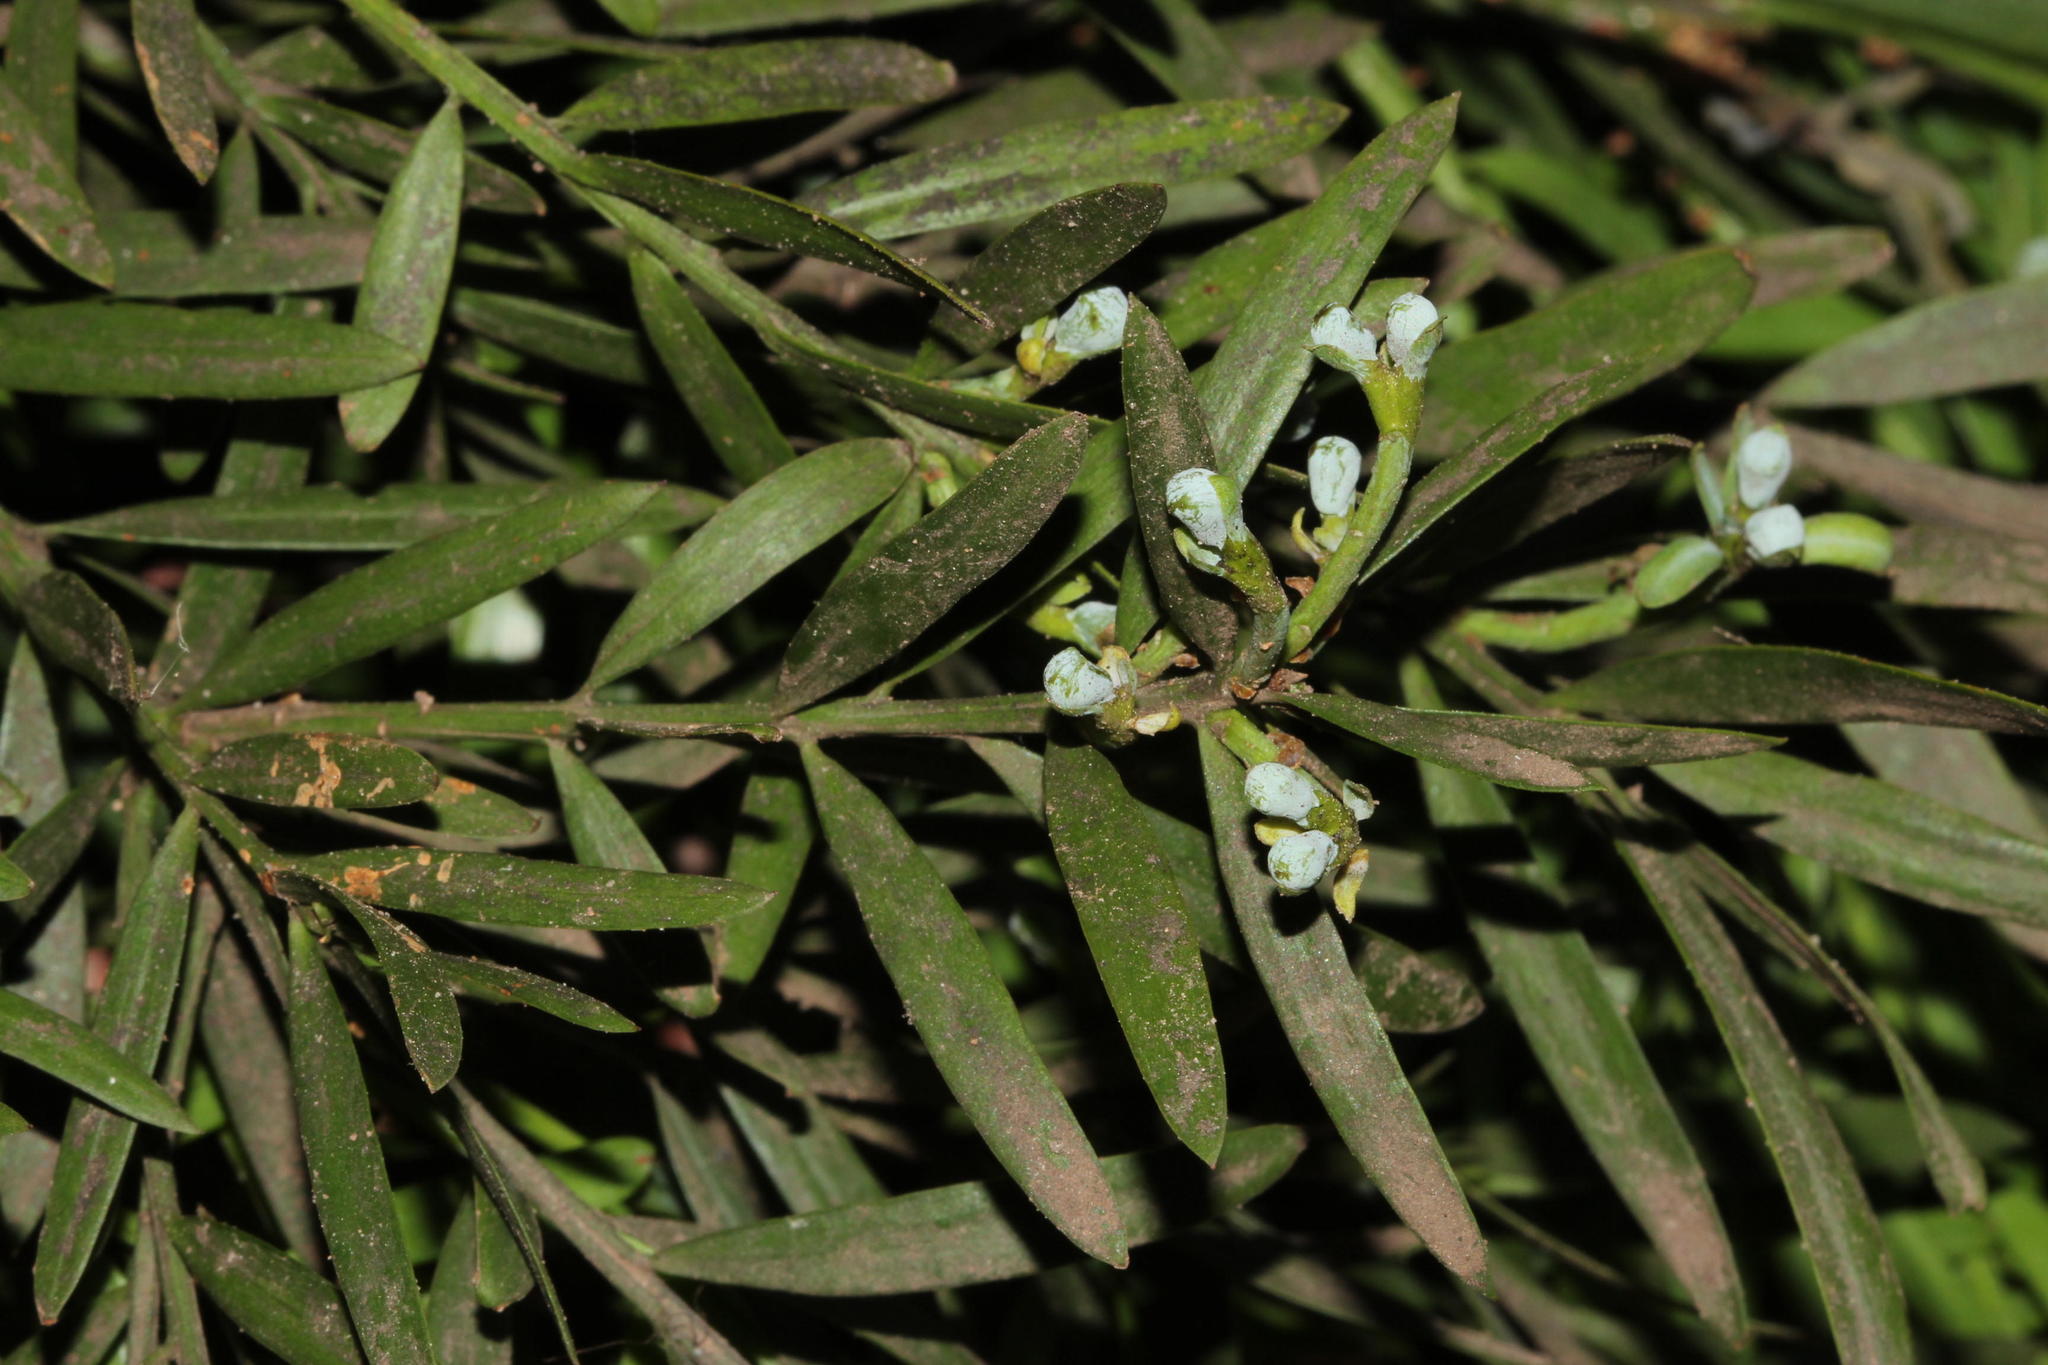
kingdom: Plantae
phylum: Tracheophyta
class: Pinopsida
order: Pinales
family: Podocarpaceae
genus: Afrocarpus
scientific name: Afrocarpus falcatus
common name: Bastard yellowwood
